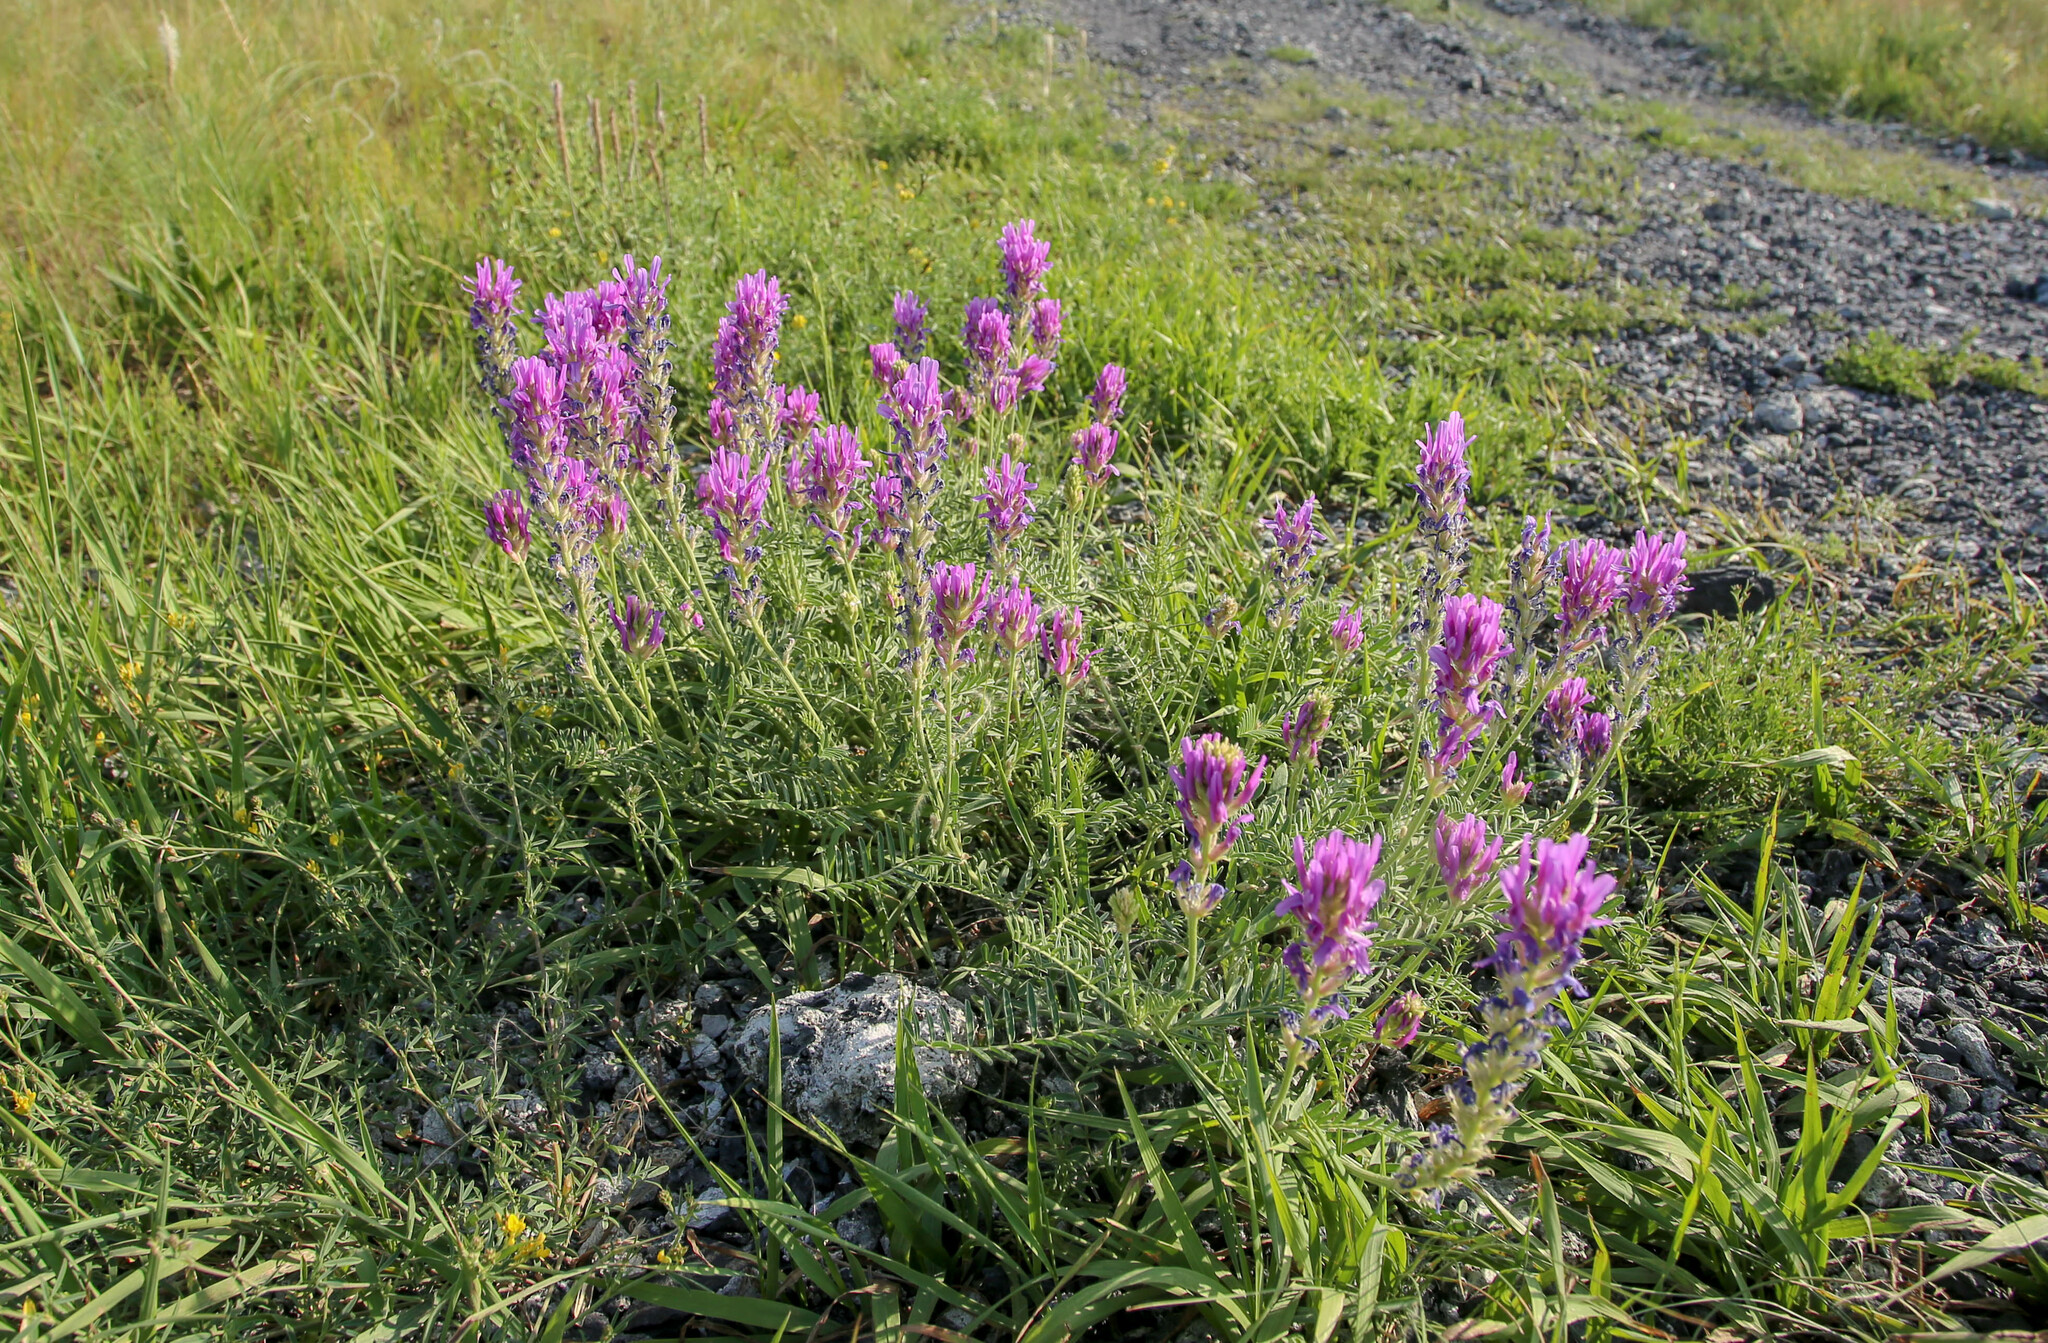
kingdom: Plantae
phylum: Tracheophyta
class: Magnoliopsida
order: Fabales
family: Fabaceae
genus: Astragalus
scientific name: Astragalus onobrychis
